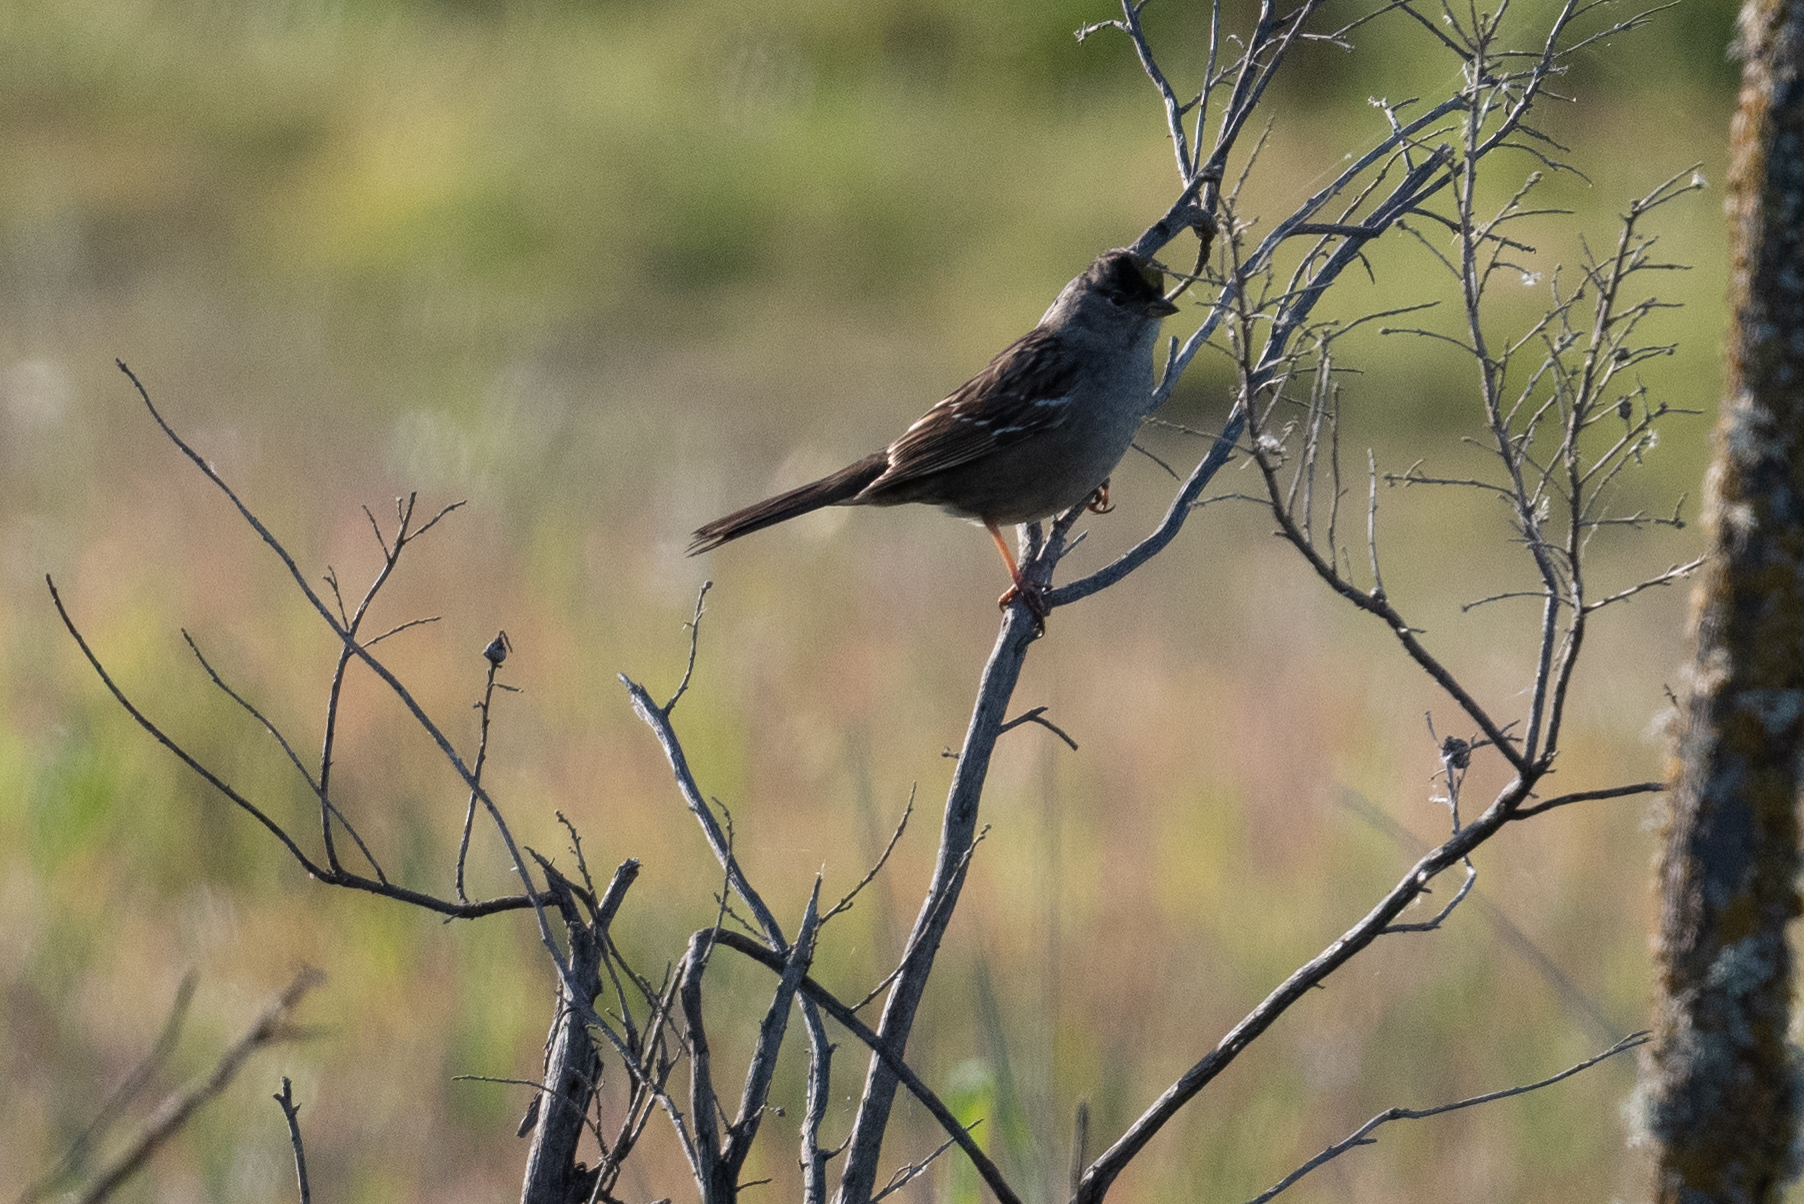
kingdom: Animalia
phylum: Chordata
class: Aves
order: Passeriformes
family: Passerellidae
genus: Zonotrichia
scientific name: Zonotrichia atricapilla
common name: Golden-crowned sparrow
